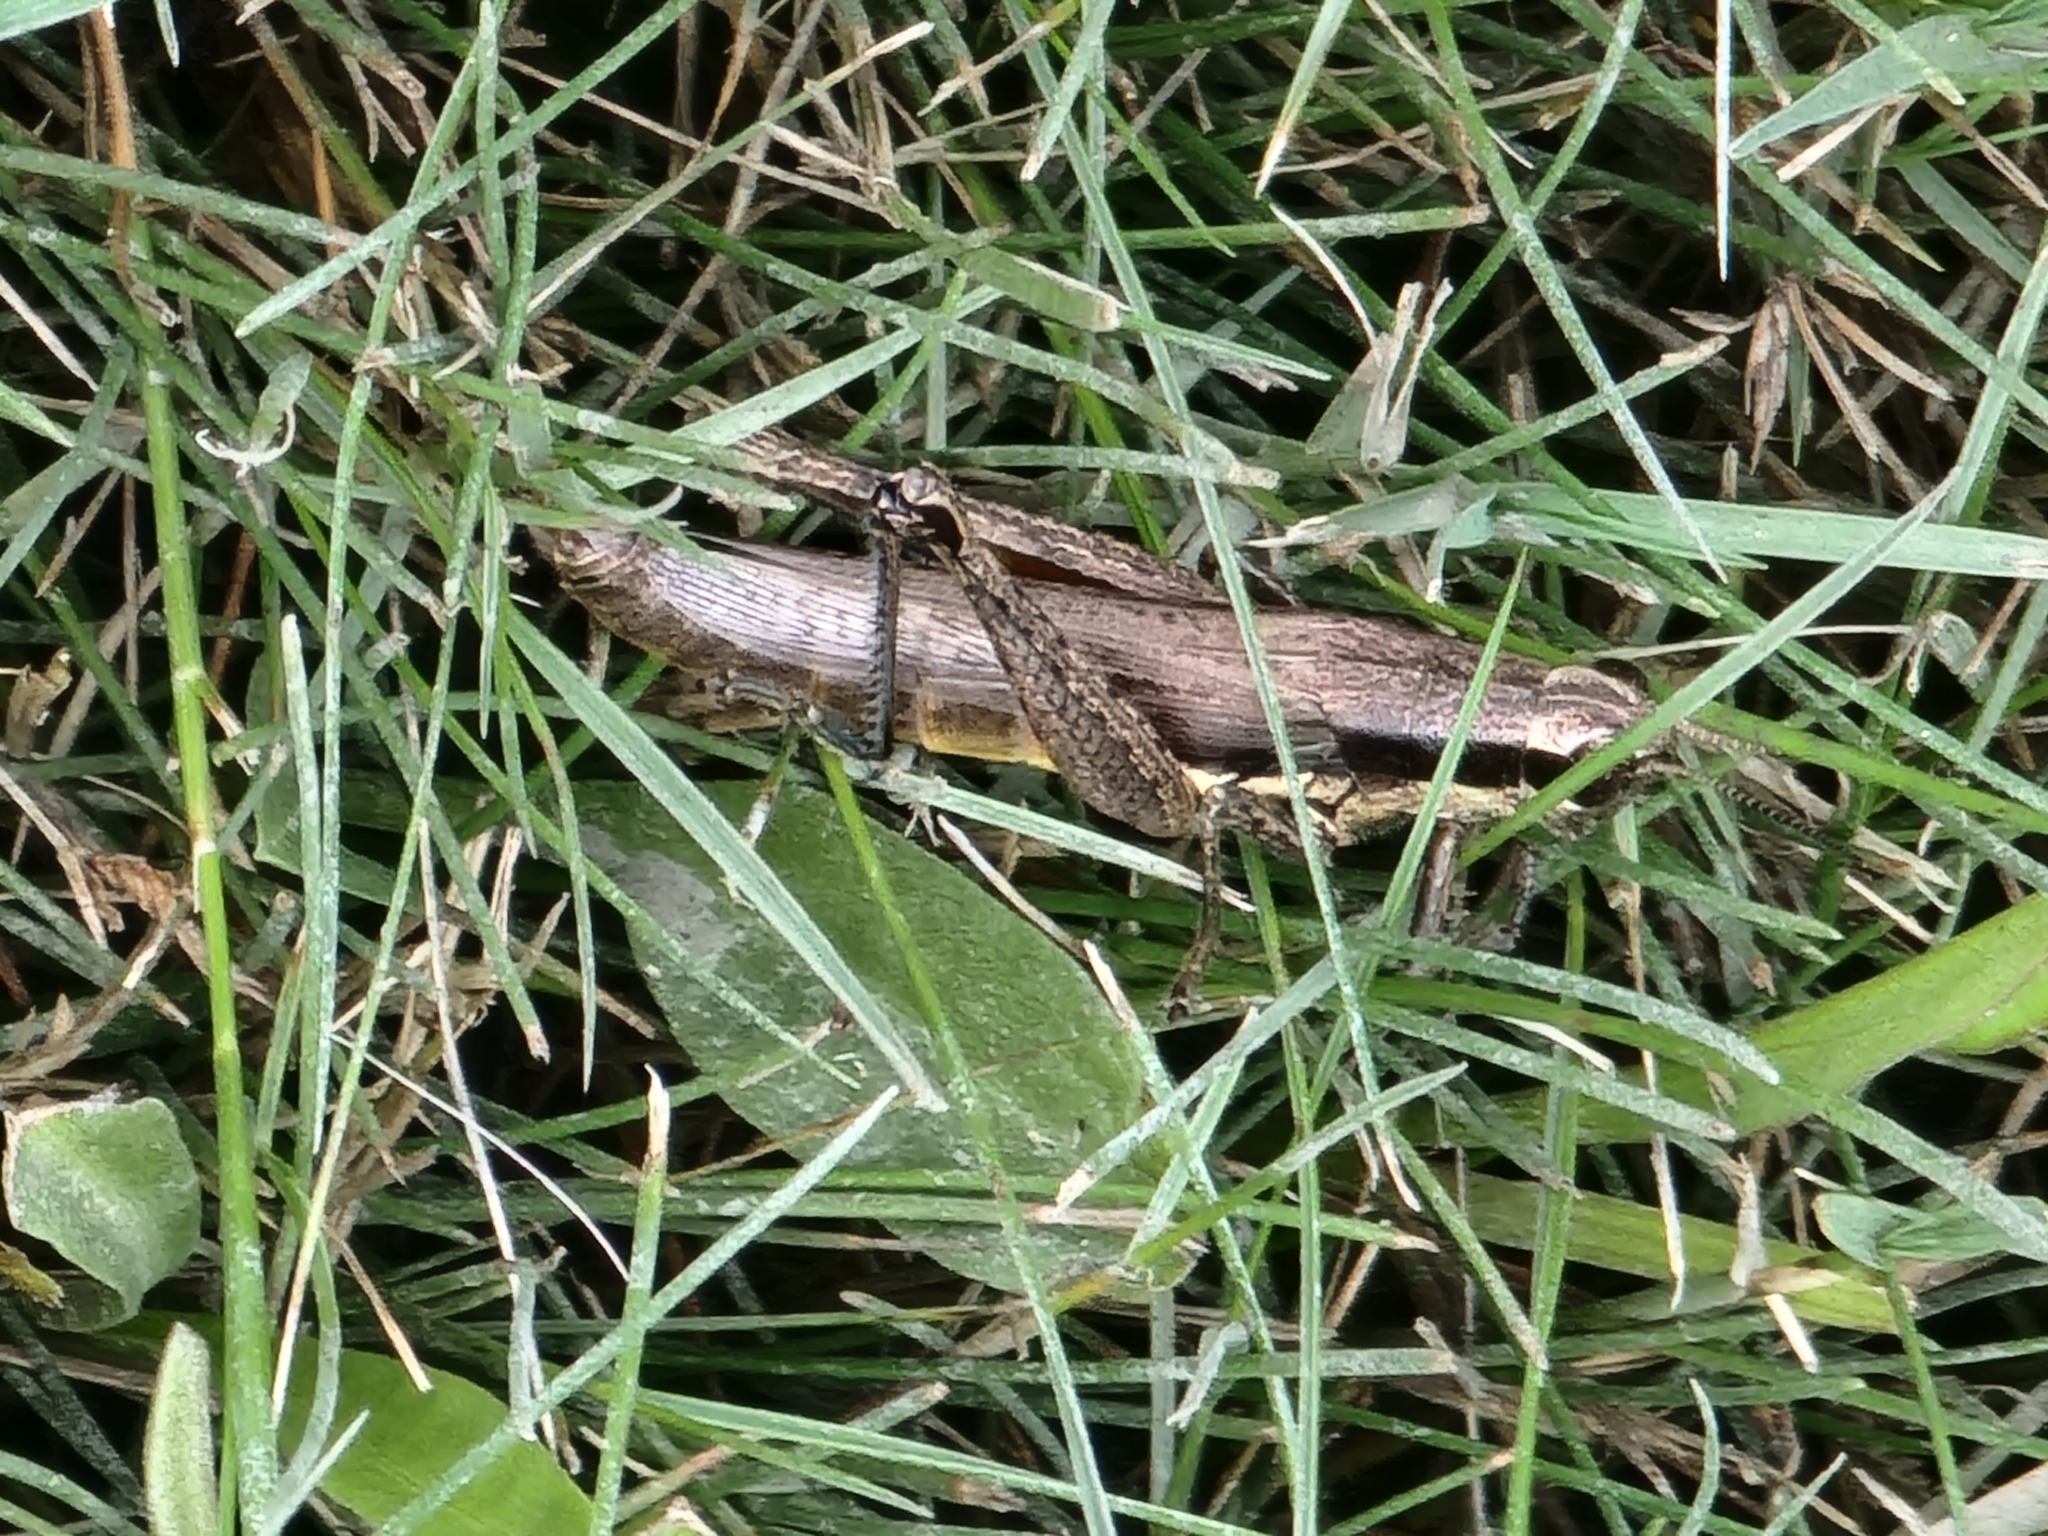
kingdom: Animalia
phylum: Arthropoda
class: Insecta
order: Orthoptera
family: Acrididae
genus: Paroxya
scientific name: Paroxya clavuligera
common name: Olive-green swamp grasshopper
